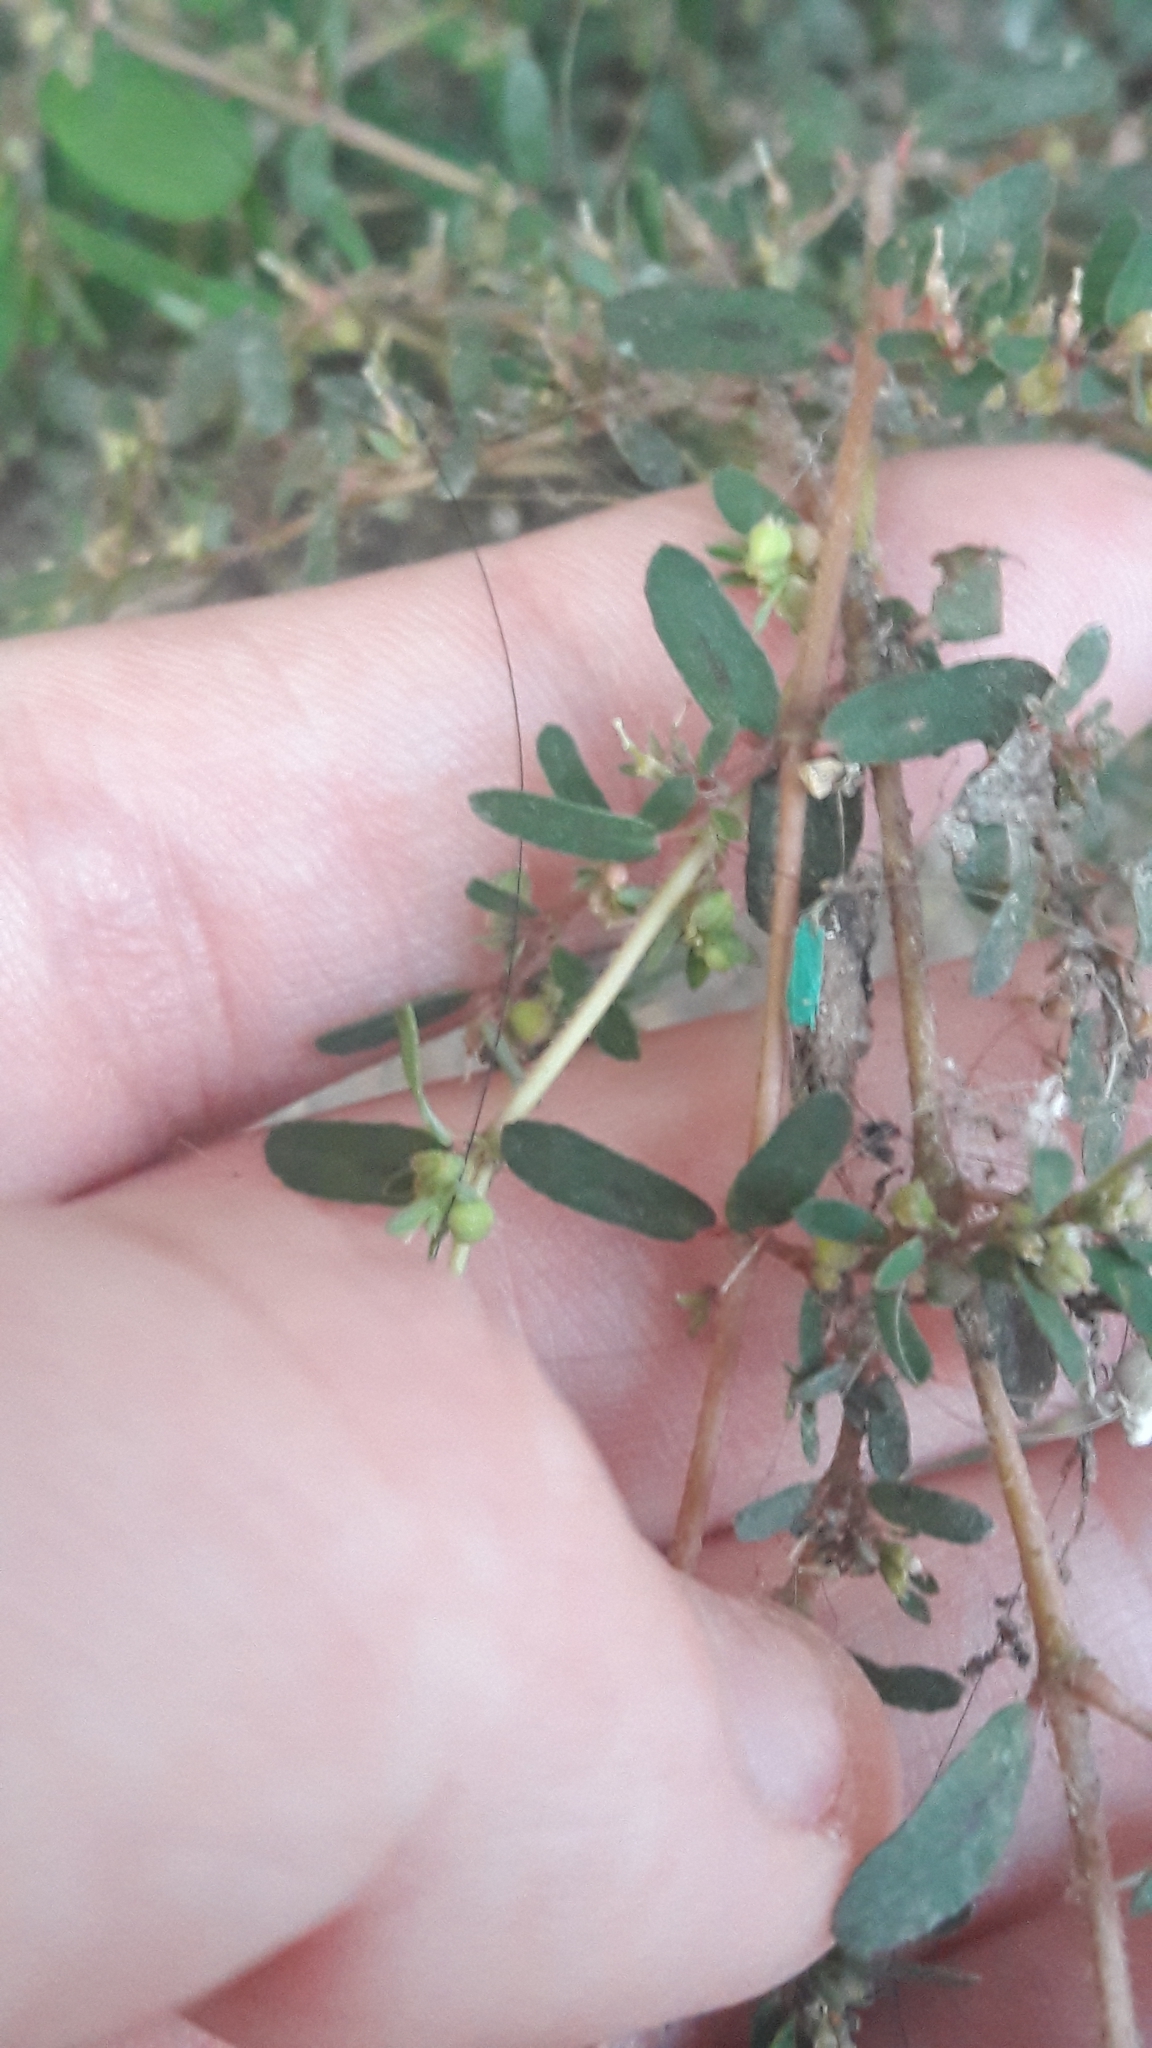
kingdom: Plantae
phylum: Tracheophyta
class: Magnoliopsida
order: Malpighiales
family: Euphorbiaceae
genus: Euphorbia
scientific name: Euphorbia maculata
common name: Spotted spurge
